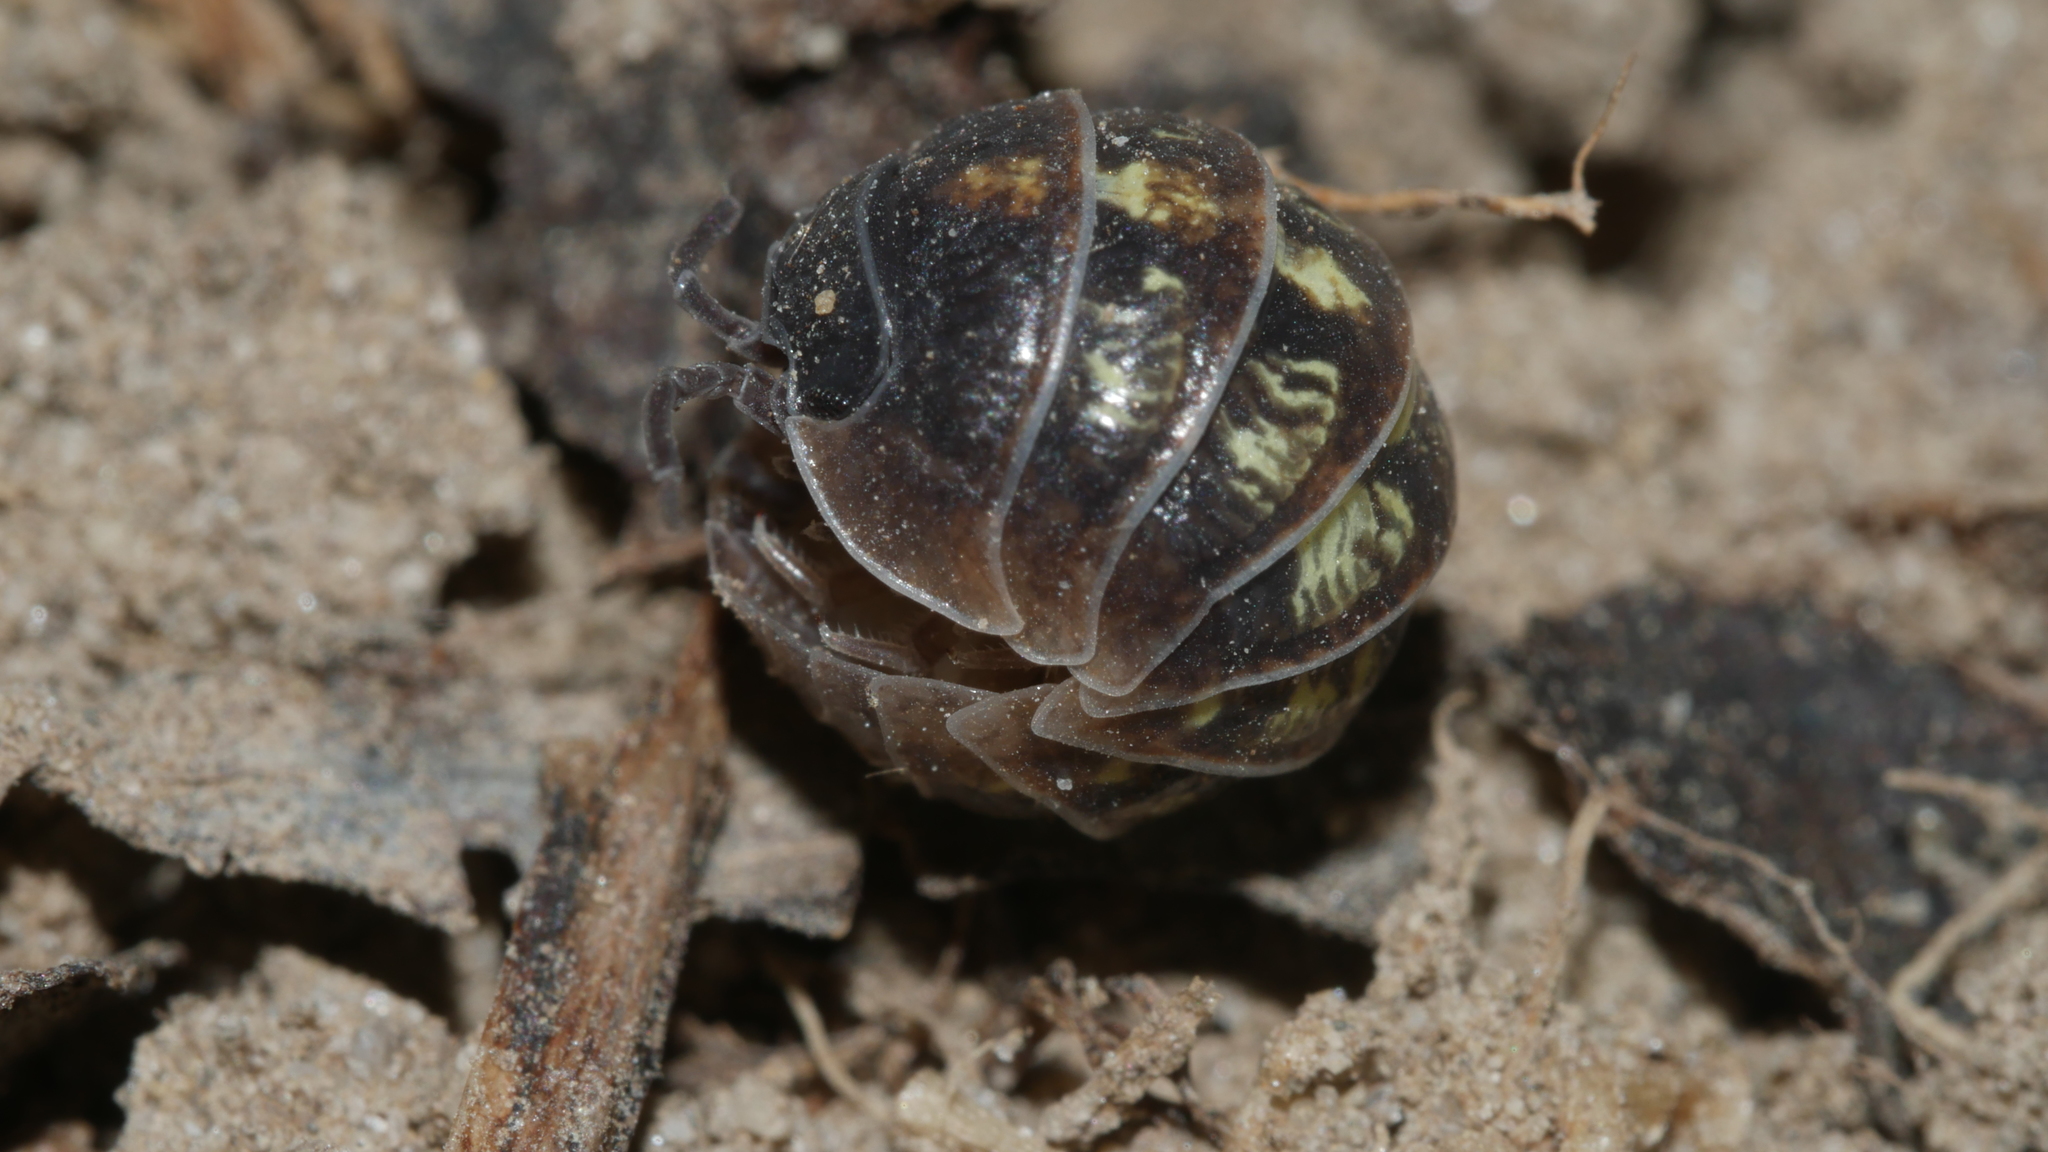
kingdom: Animalia
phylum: Arthropoda
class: Malacostraca
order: Isopoda
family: Armadillidiidae
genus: Armadillidium
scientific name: Armadillidium vulgare
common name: Common pill woodlouse
